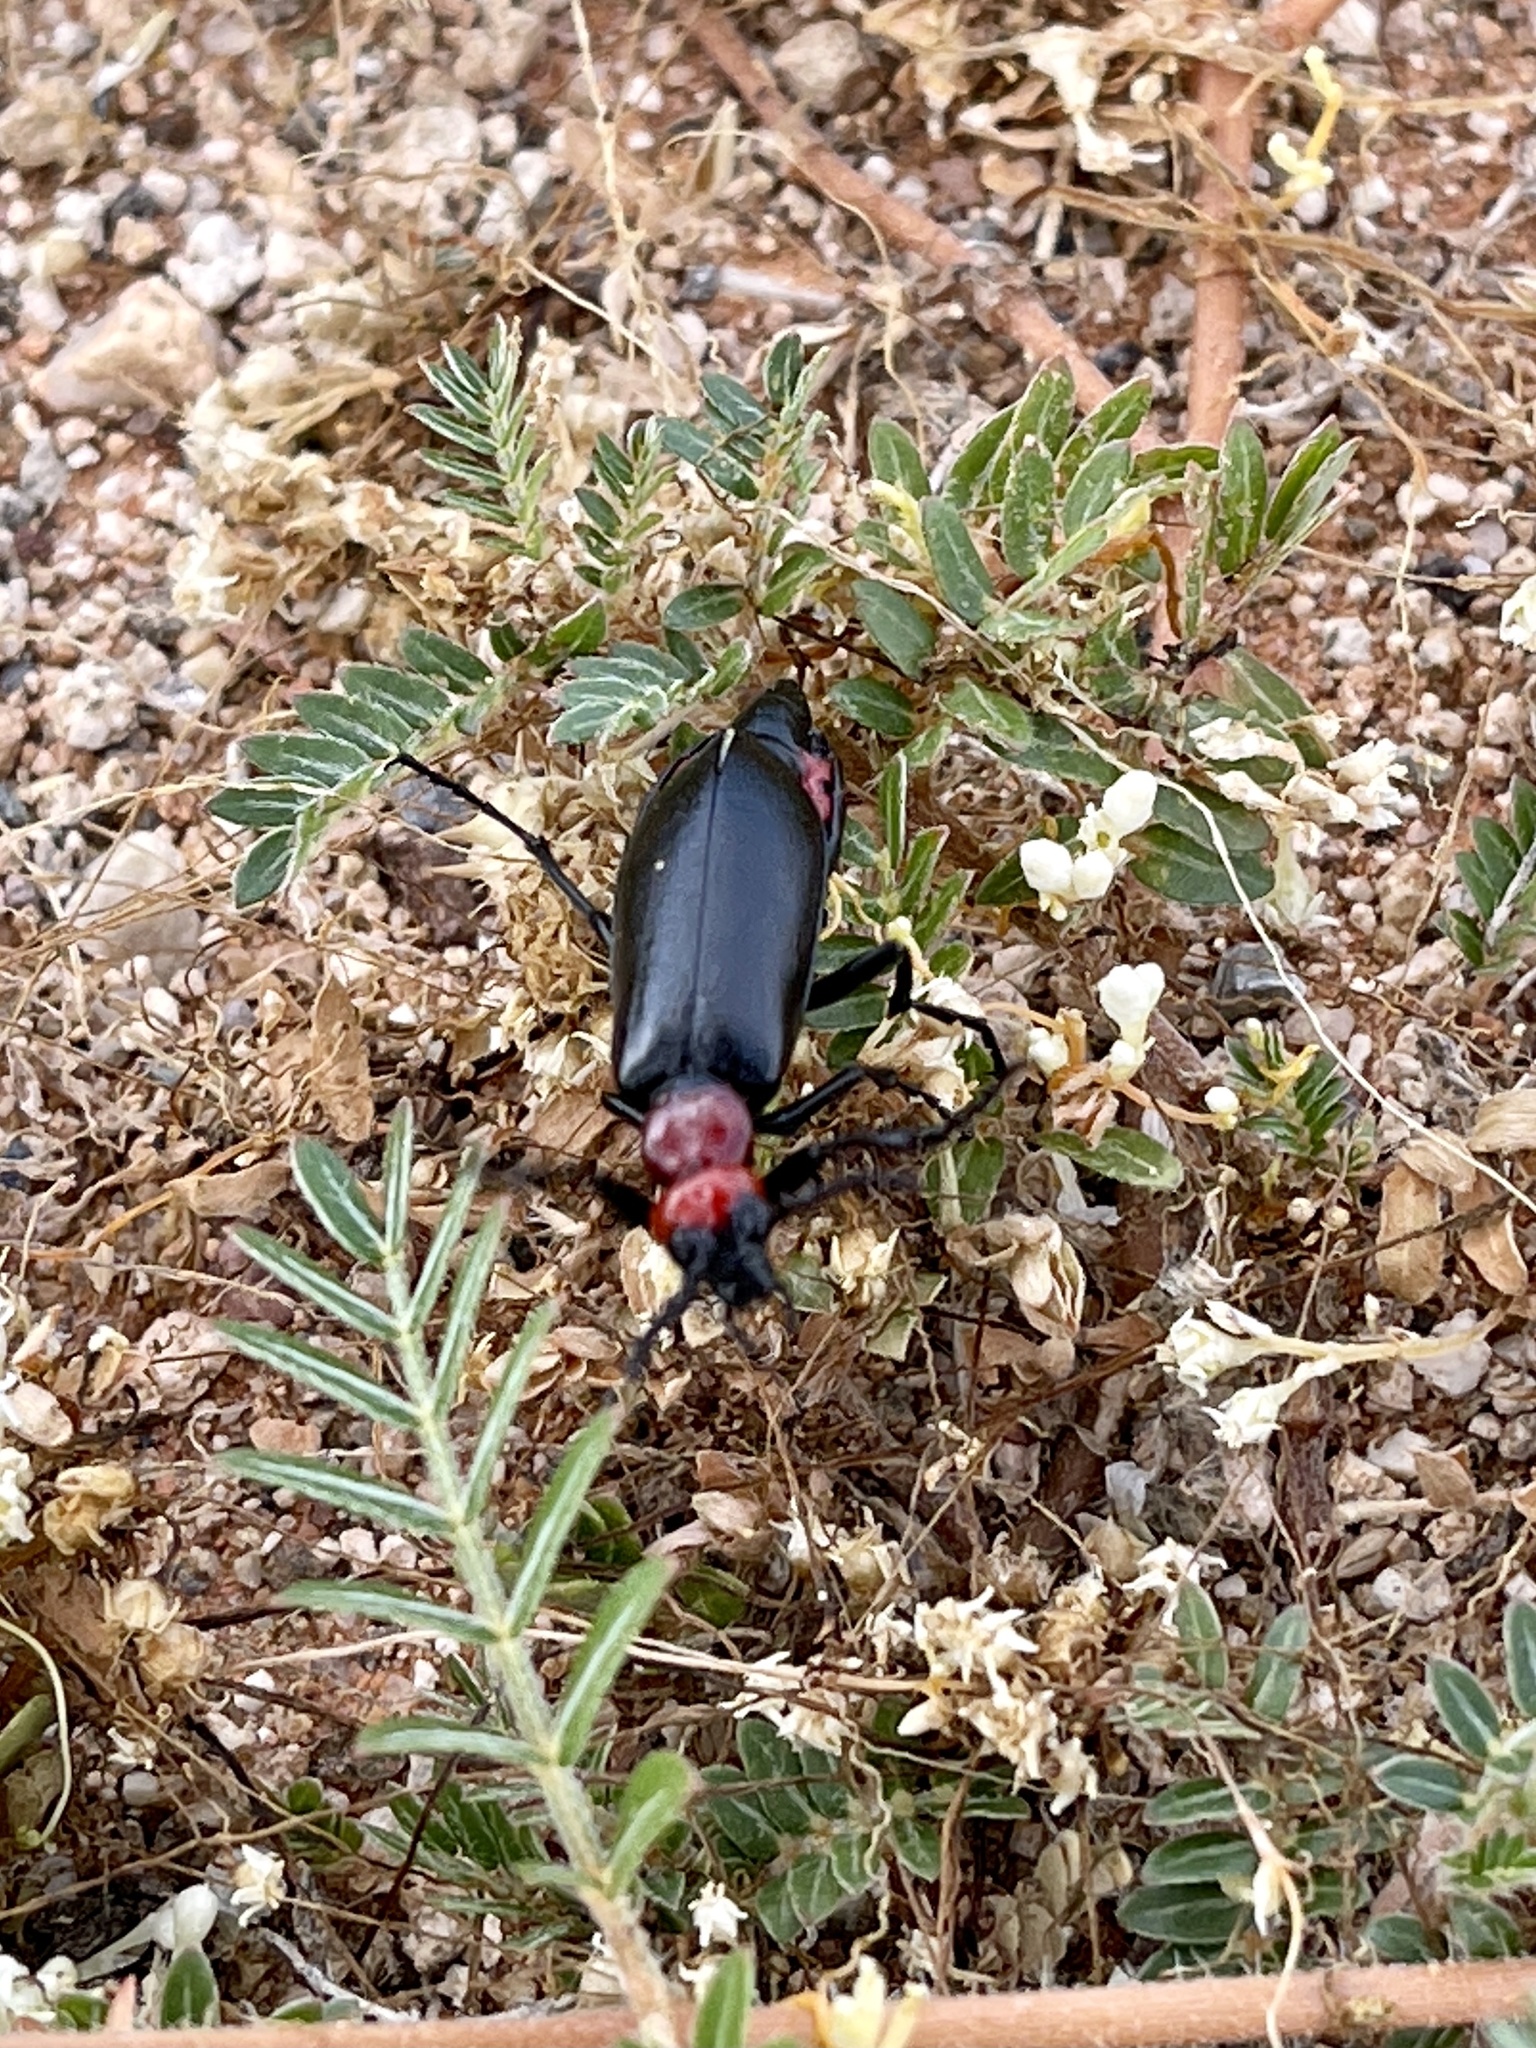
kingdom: Animalia
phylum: Arthropoda
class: Insecta
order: Coleoptera
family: Meloidae
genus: Lytta
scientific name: Lytta mutilata
